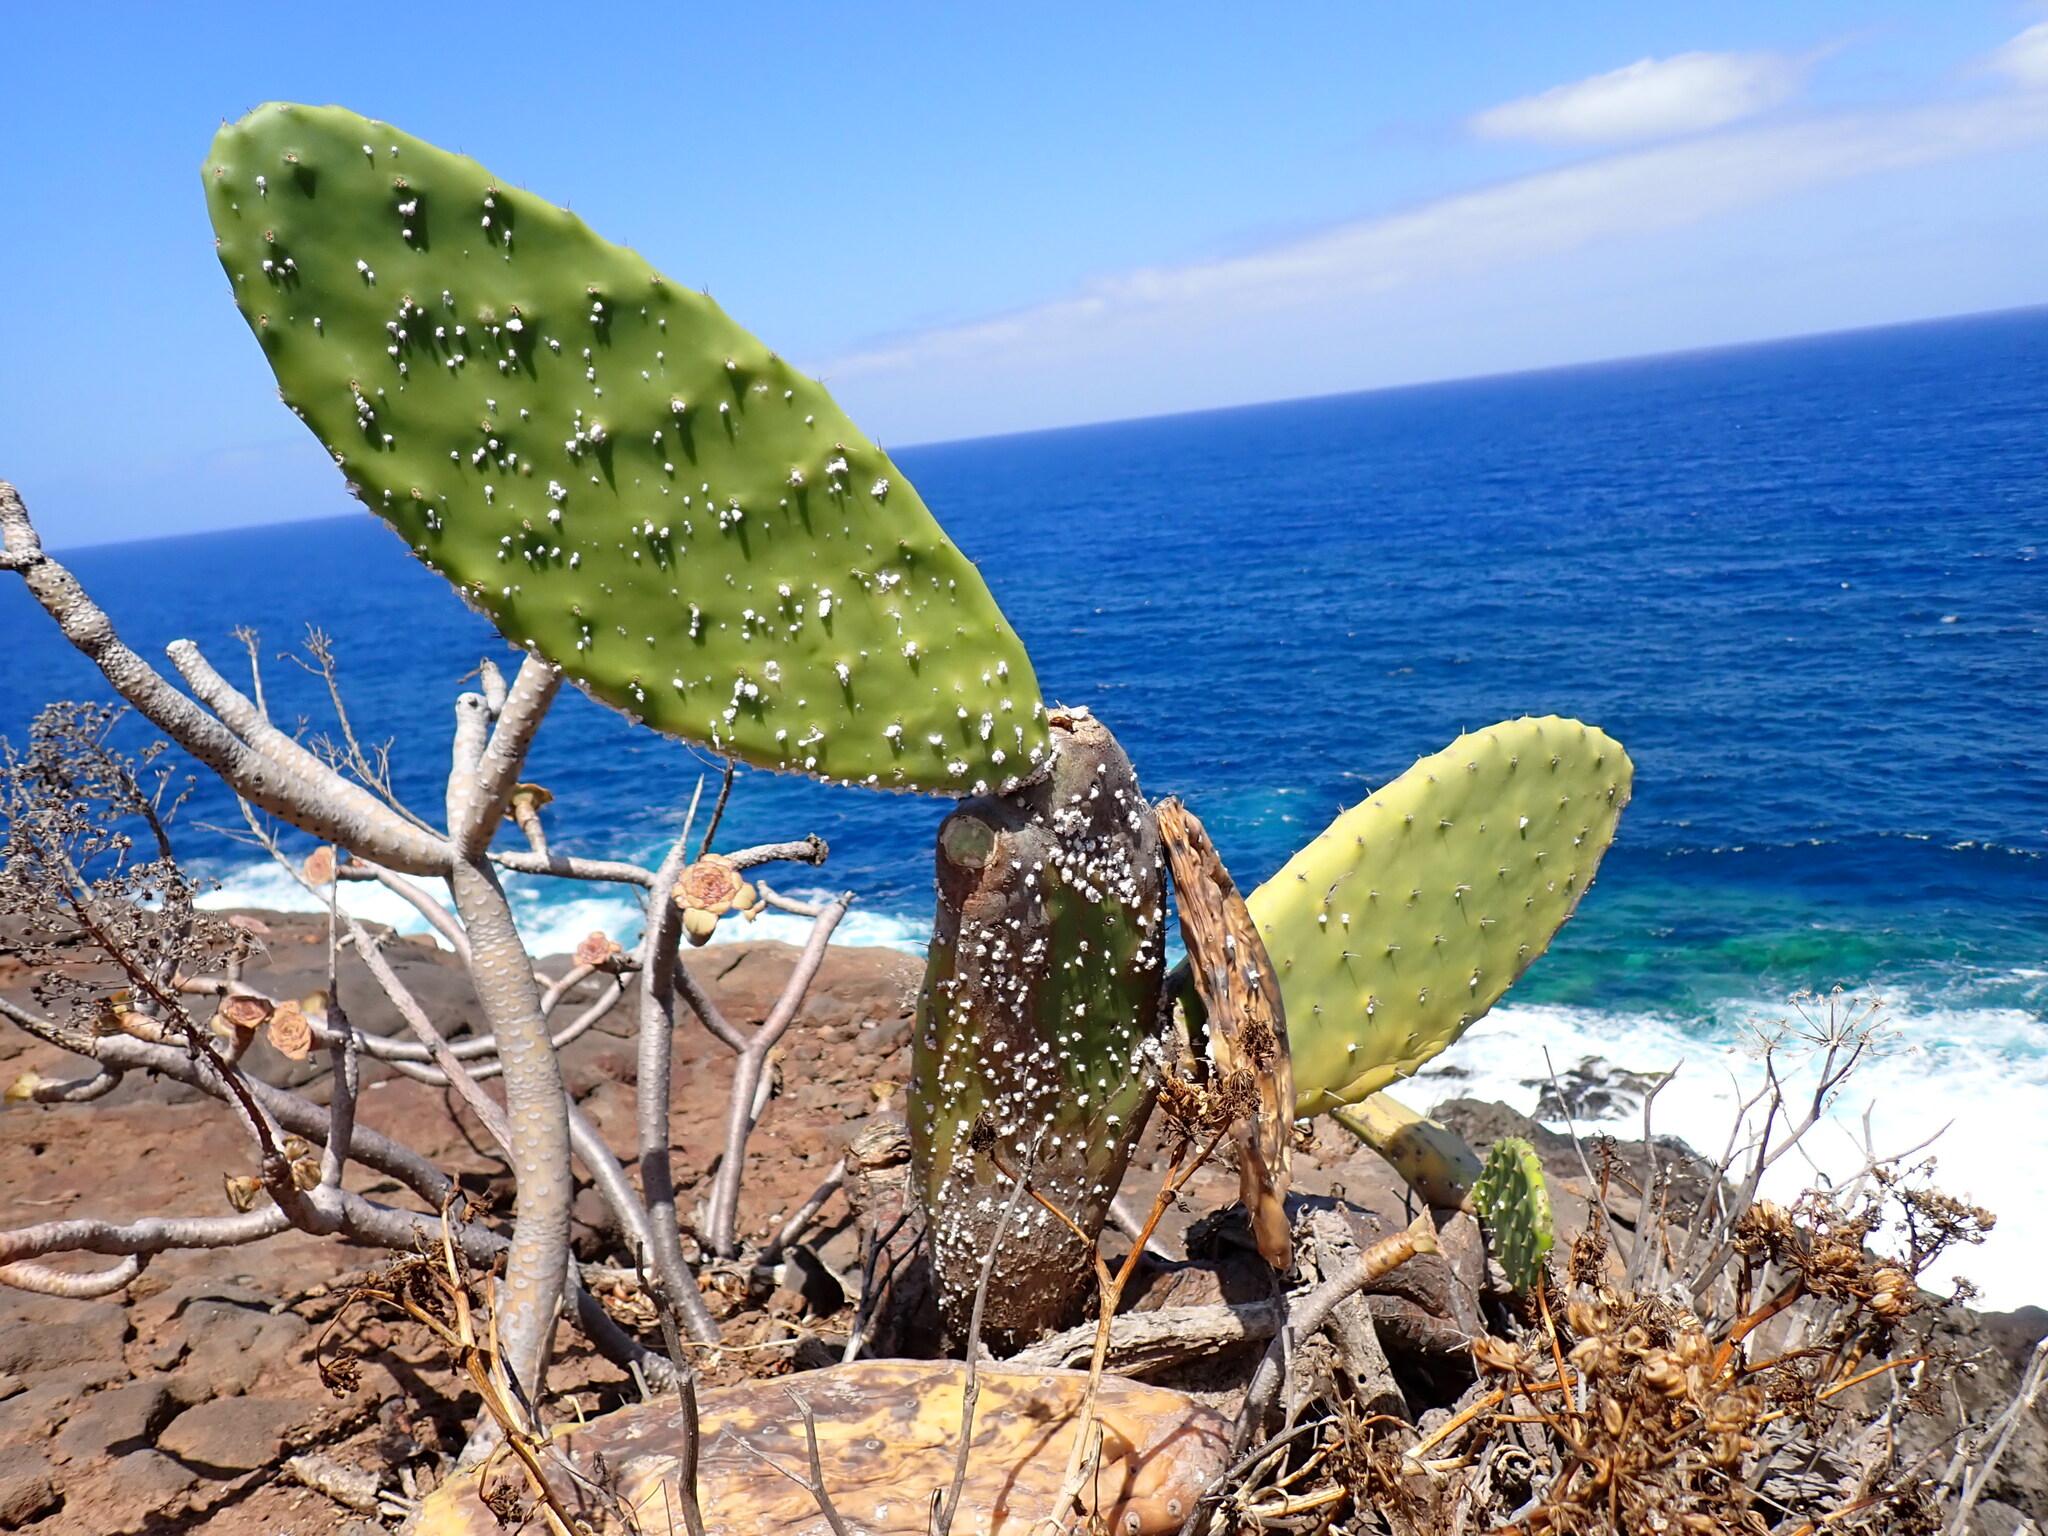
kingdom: Plantae
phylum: Tracheophyta
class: Magnoliopsida
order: Caryophyllales
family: Cactaceae
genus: Opuntia
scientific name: Opuntia ficus-indica
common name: Barbary fig
